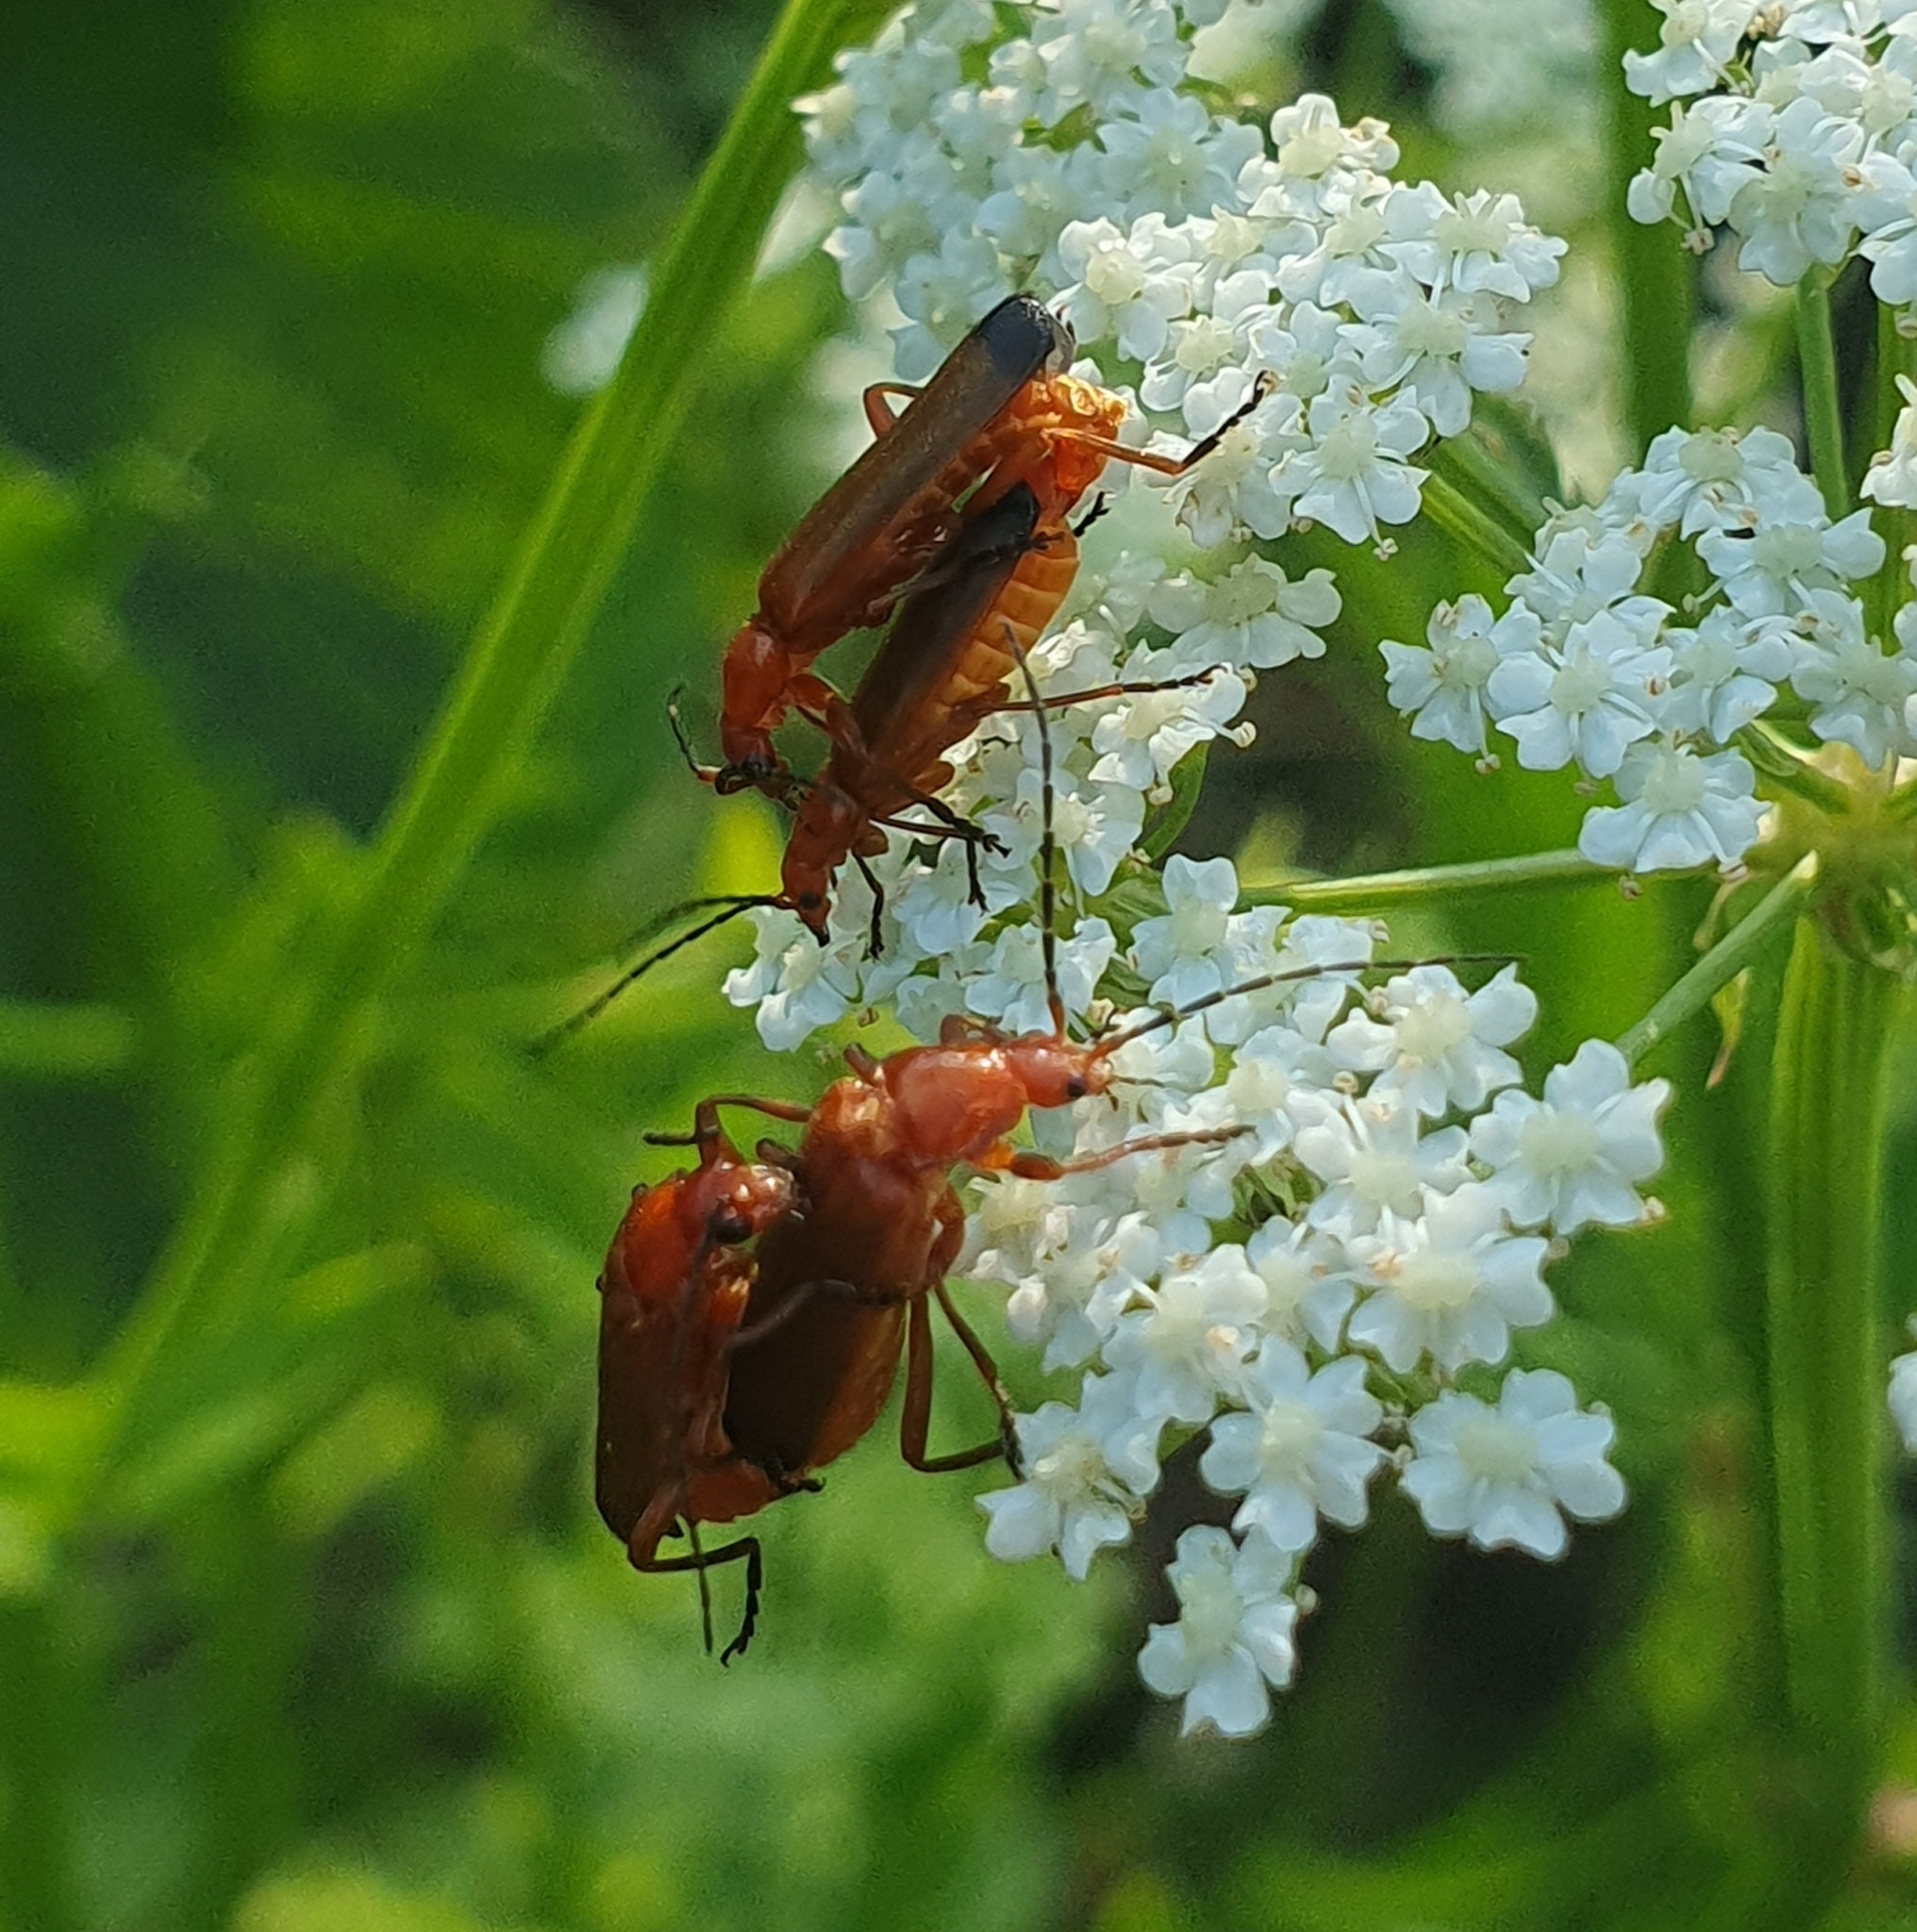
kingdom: Animalia
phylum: Arthropoda
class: Insecta
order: Coleoptera
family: Cantharidae
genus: Rhagonycha
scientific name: Rhagonycha fulva
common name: Common red soldier beetle
